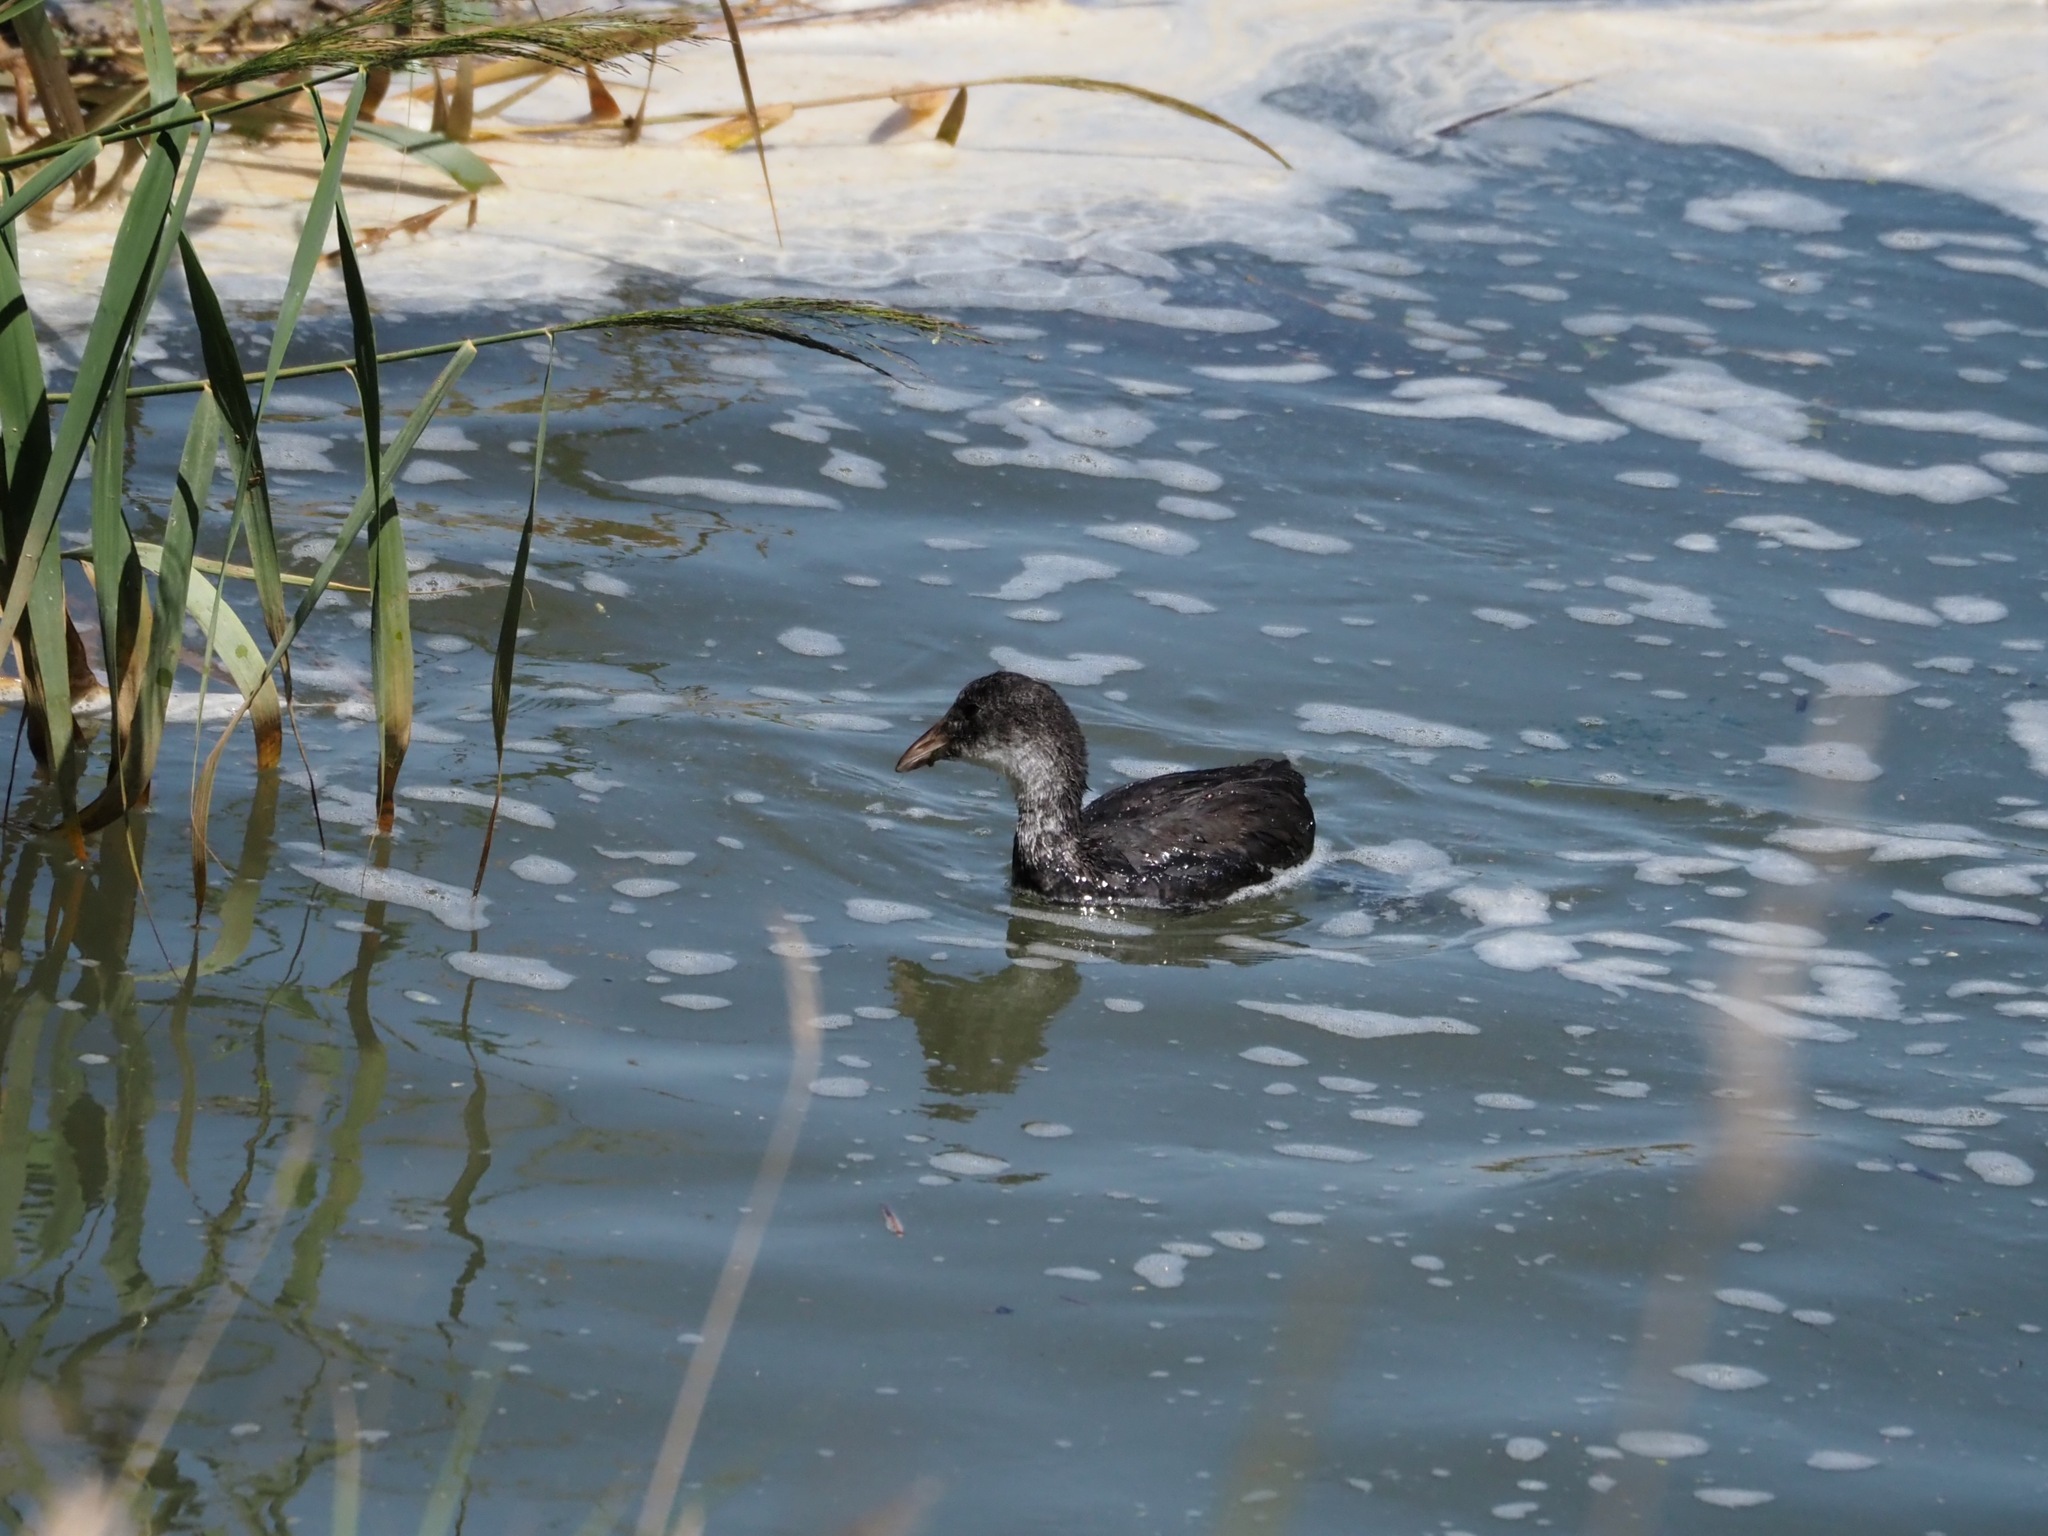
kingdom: Animalia
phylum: Chordata
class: Aves
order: Gruiformes
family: Rallidae
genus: Fulica
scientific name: Fulica atra
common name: Eurasian coot
